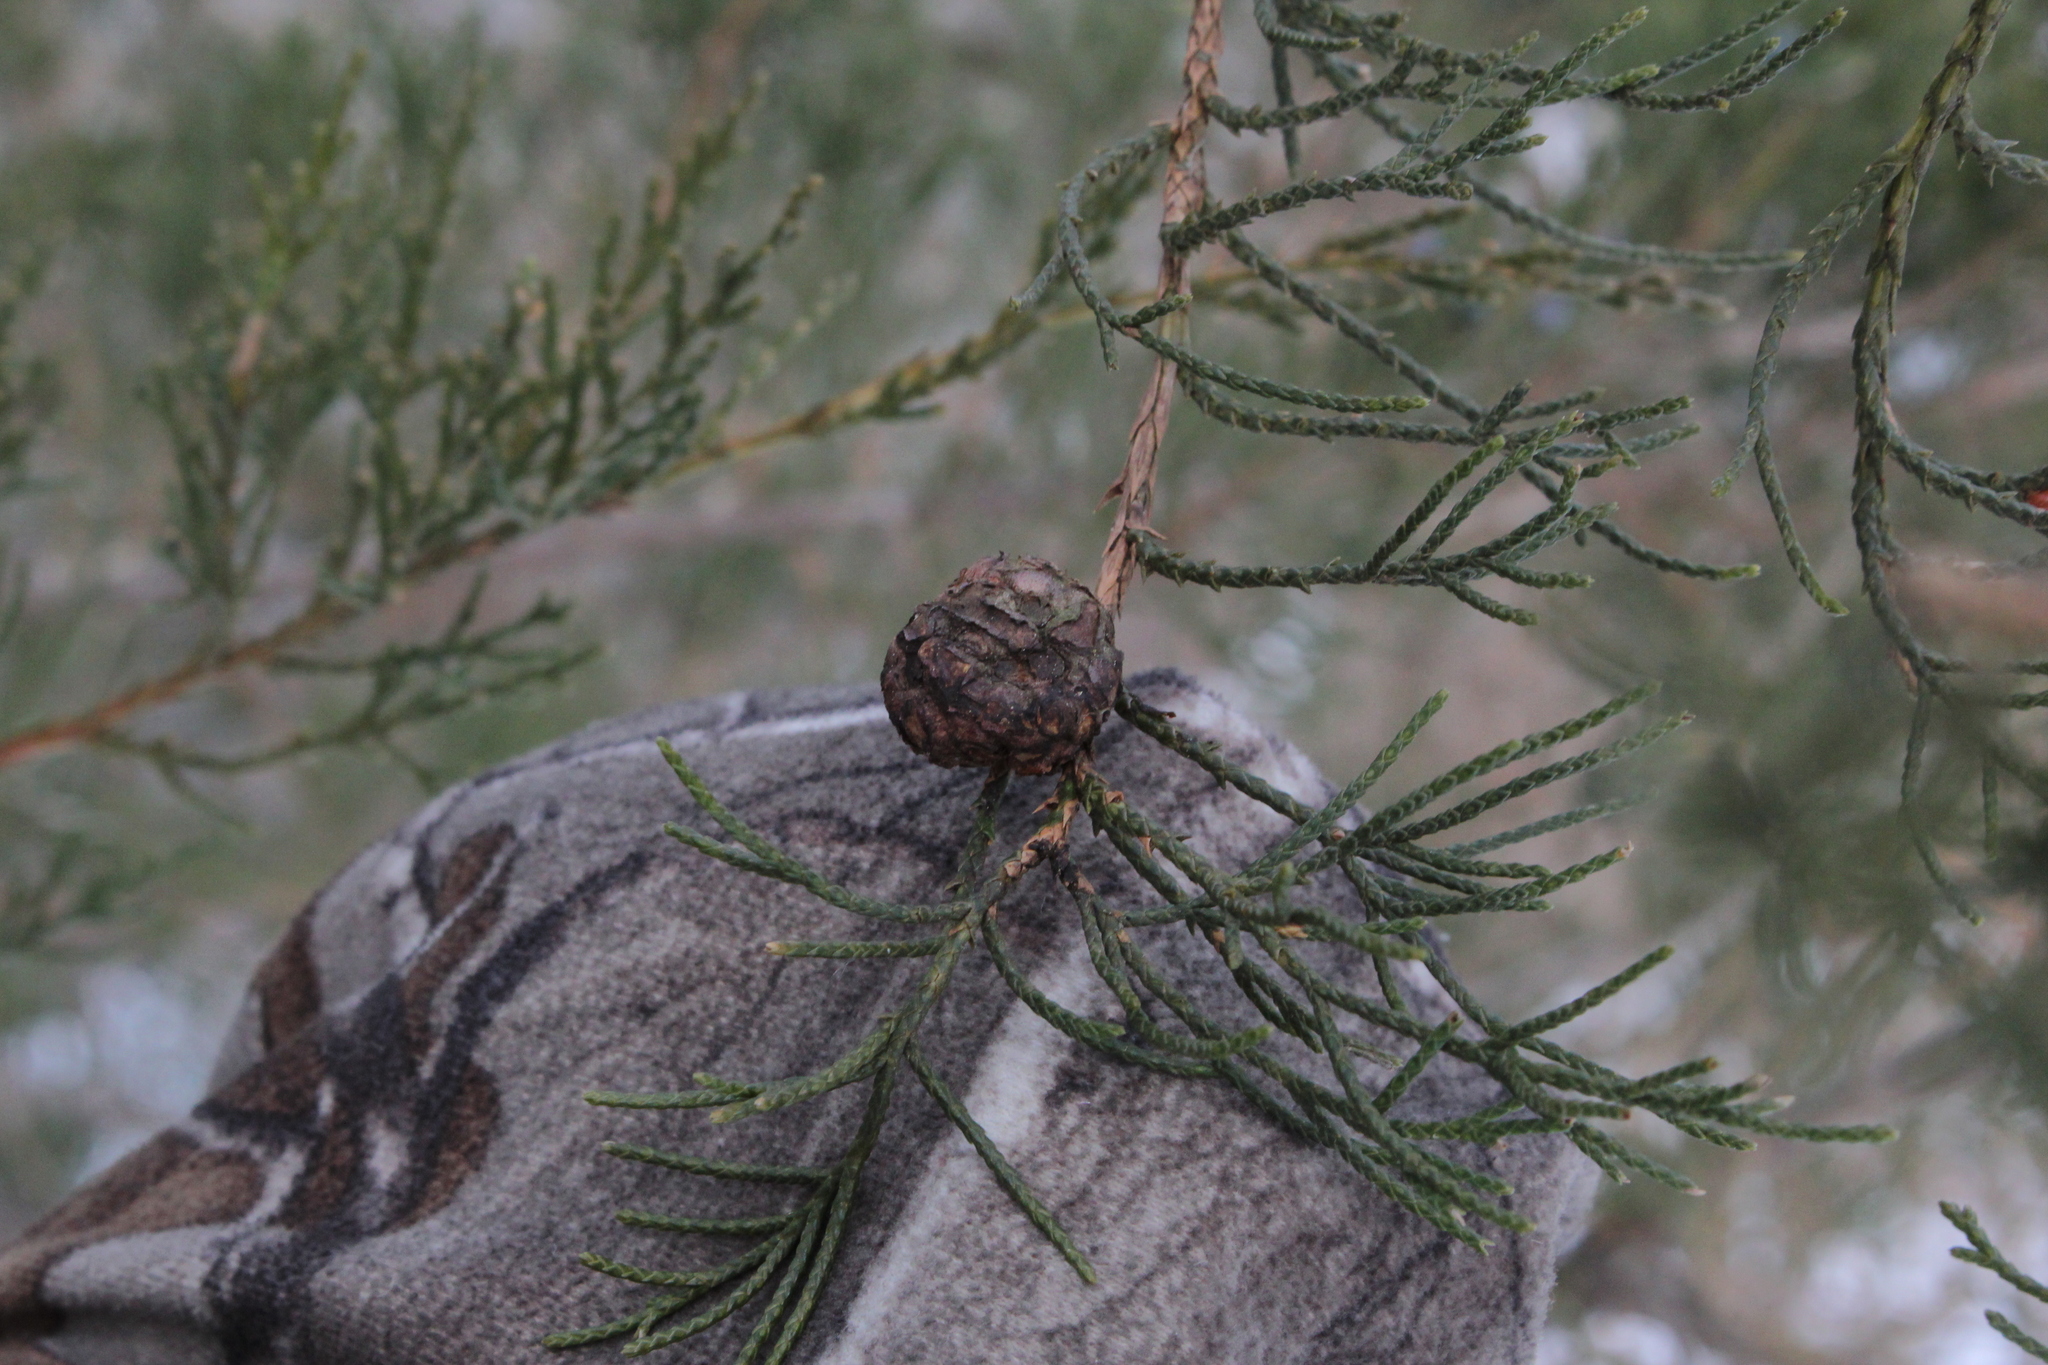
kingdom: Fungi
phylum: Basidiomycota
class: Pucciniomycetes
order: Pucciniales
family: Gymnosporangiaceae
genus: Gymnosporangium
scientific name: Gymnosporangium juniperi-virginianae
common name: Juniper-apple rust
